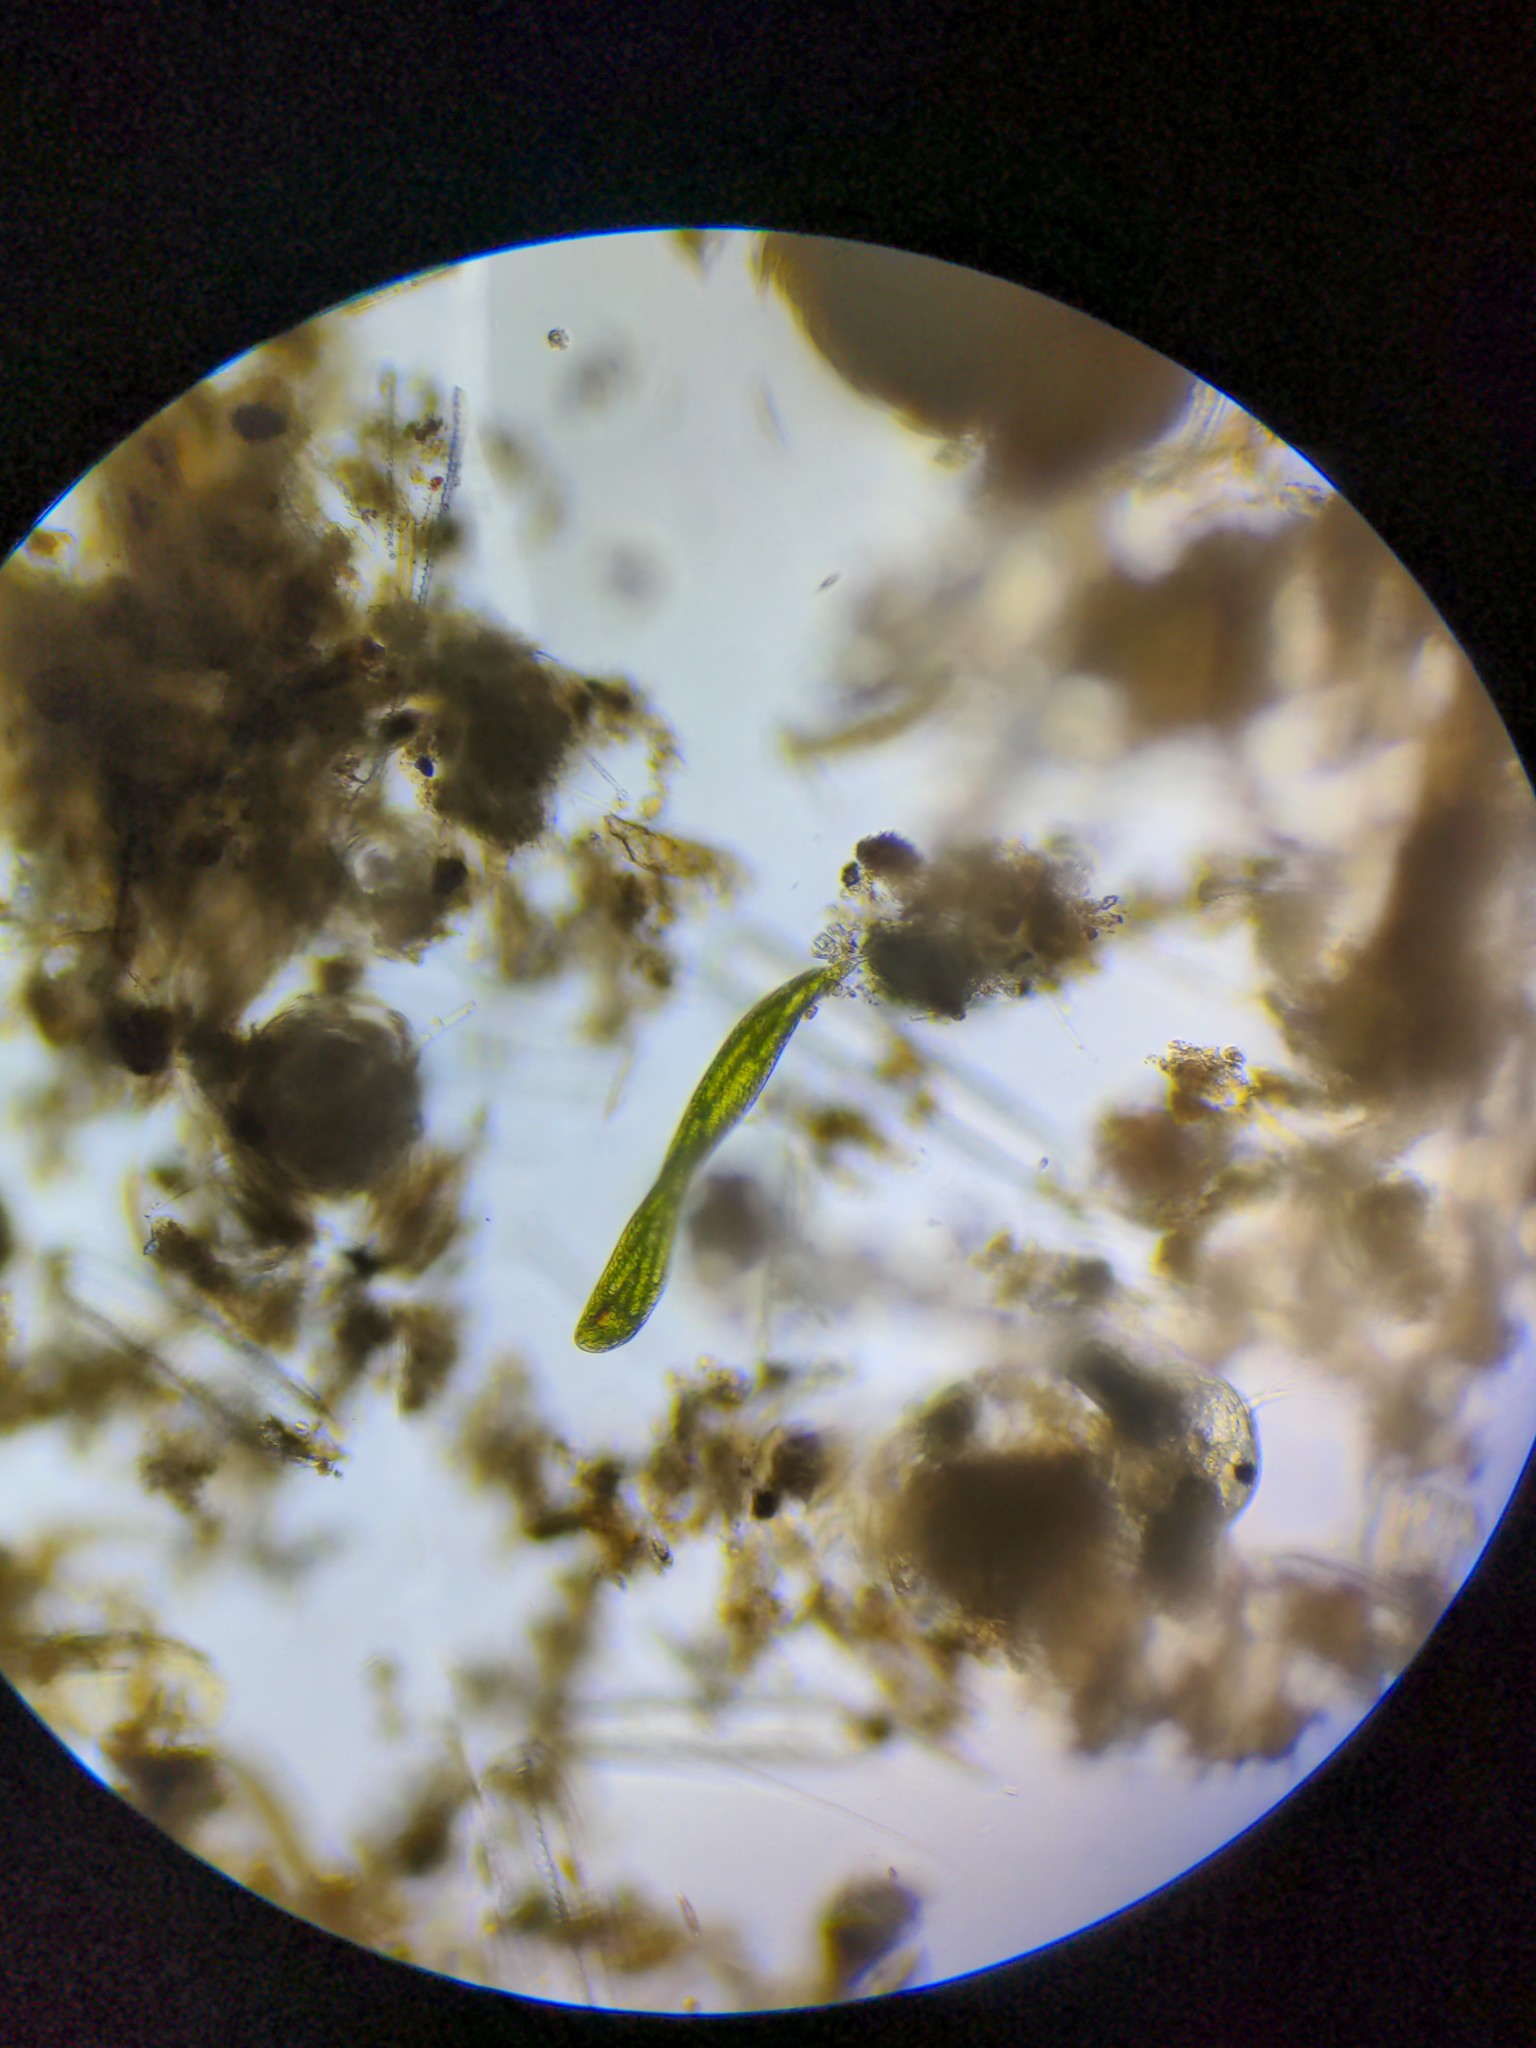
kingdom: Protozoa
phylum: Euglenozoa
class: Euglenoidea
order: Euglenida
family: Phacidae
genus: Lepocinclis
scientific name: Lepocinclis helicoidea
